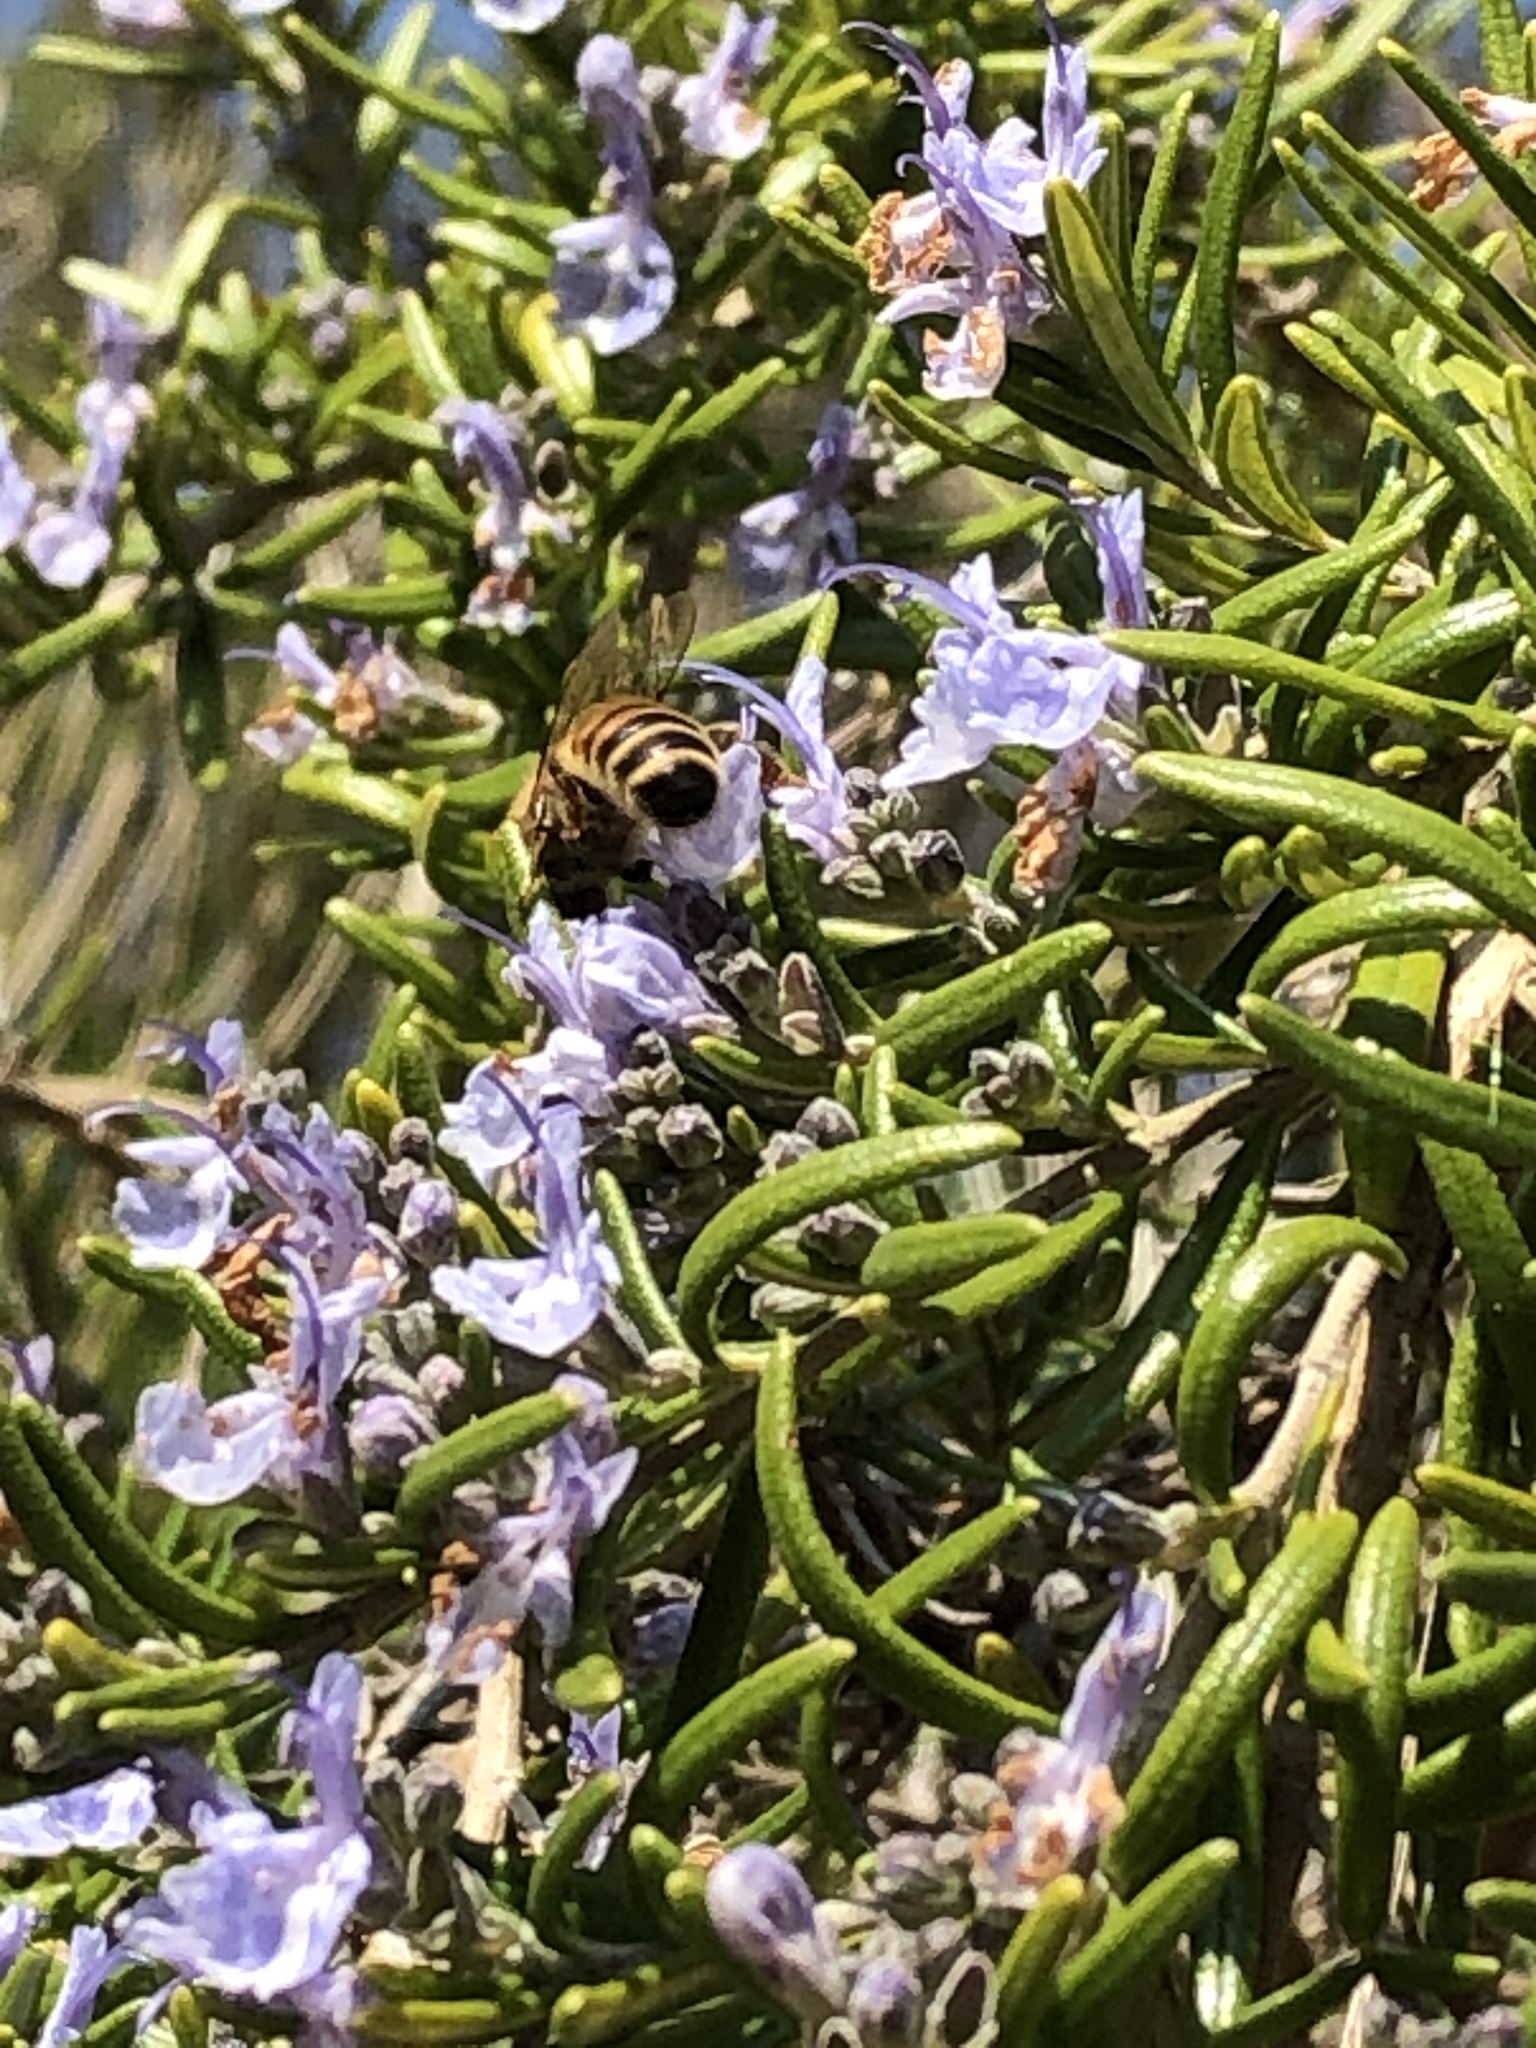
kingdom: Animalia
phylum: Arthropoda
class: Insecta
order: Hymenoptera
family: Apidae
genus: Apis
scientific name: Apis mellifera
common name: Honey bee
